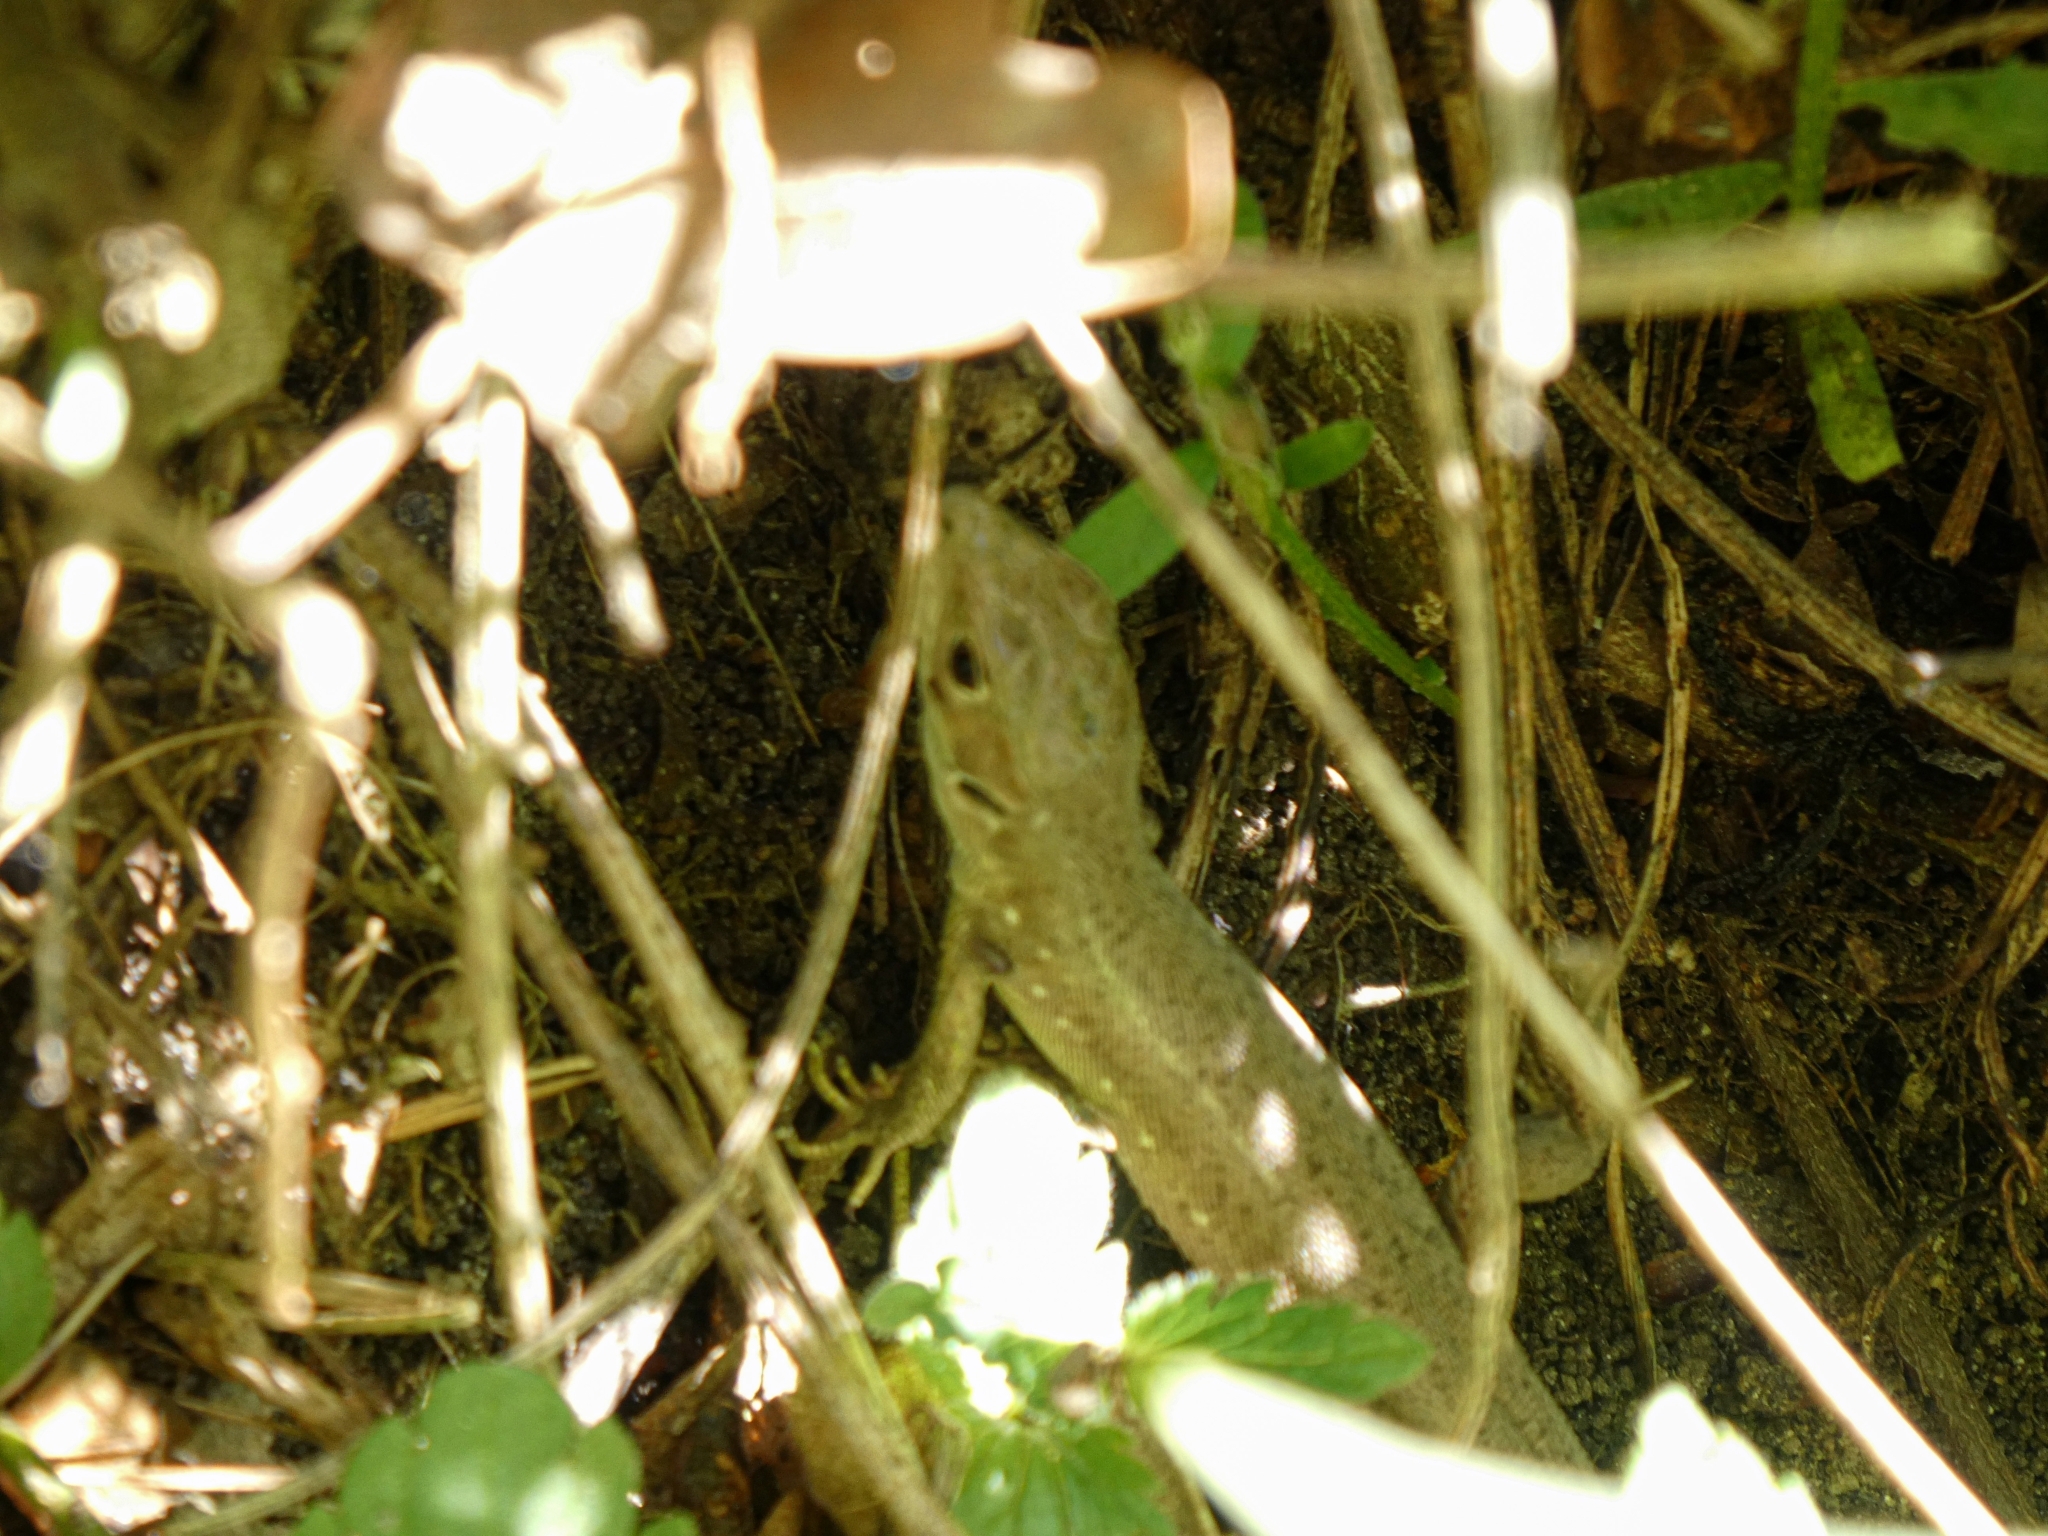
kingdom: Animalia
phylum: Chordata
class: Squamata
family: Lacertidae
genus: Lacerta
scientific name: Lacerta viridis
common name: European green lizard
